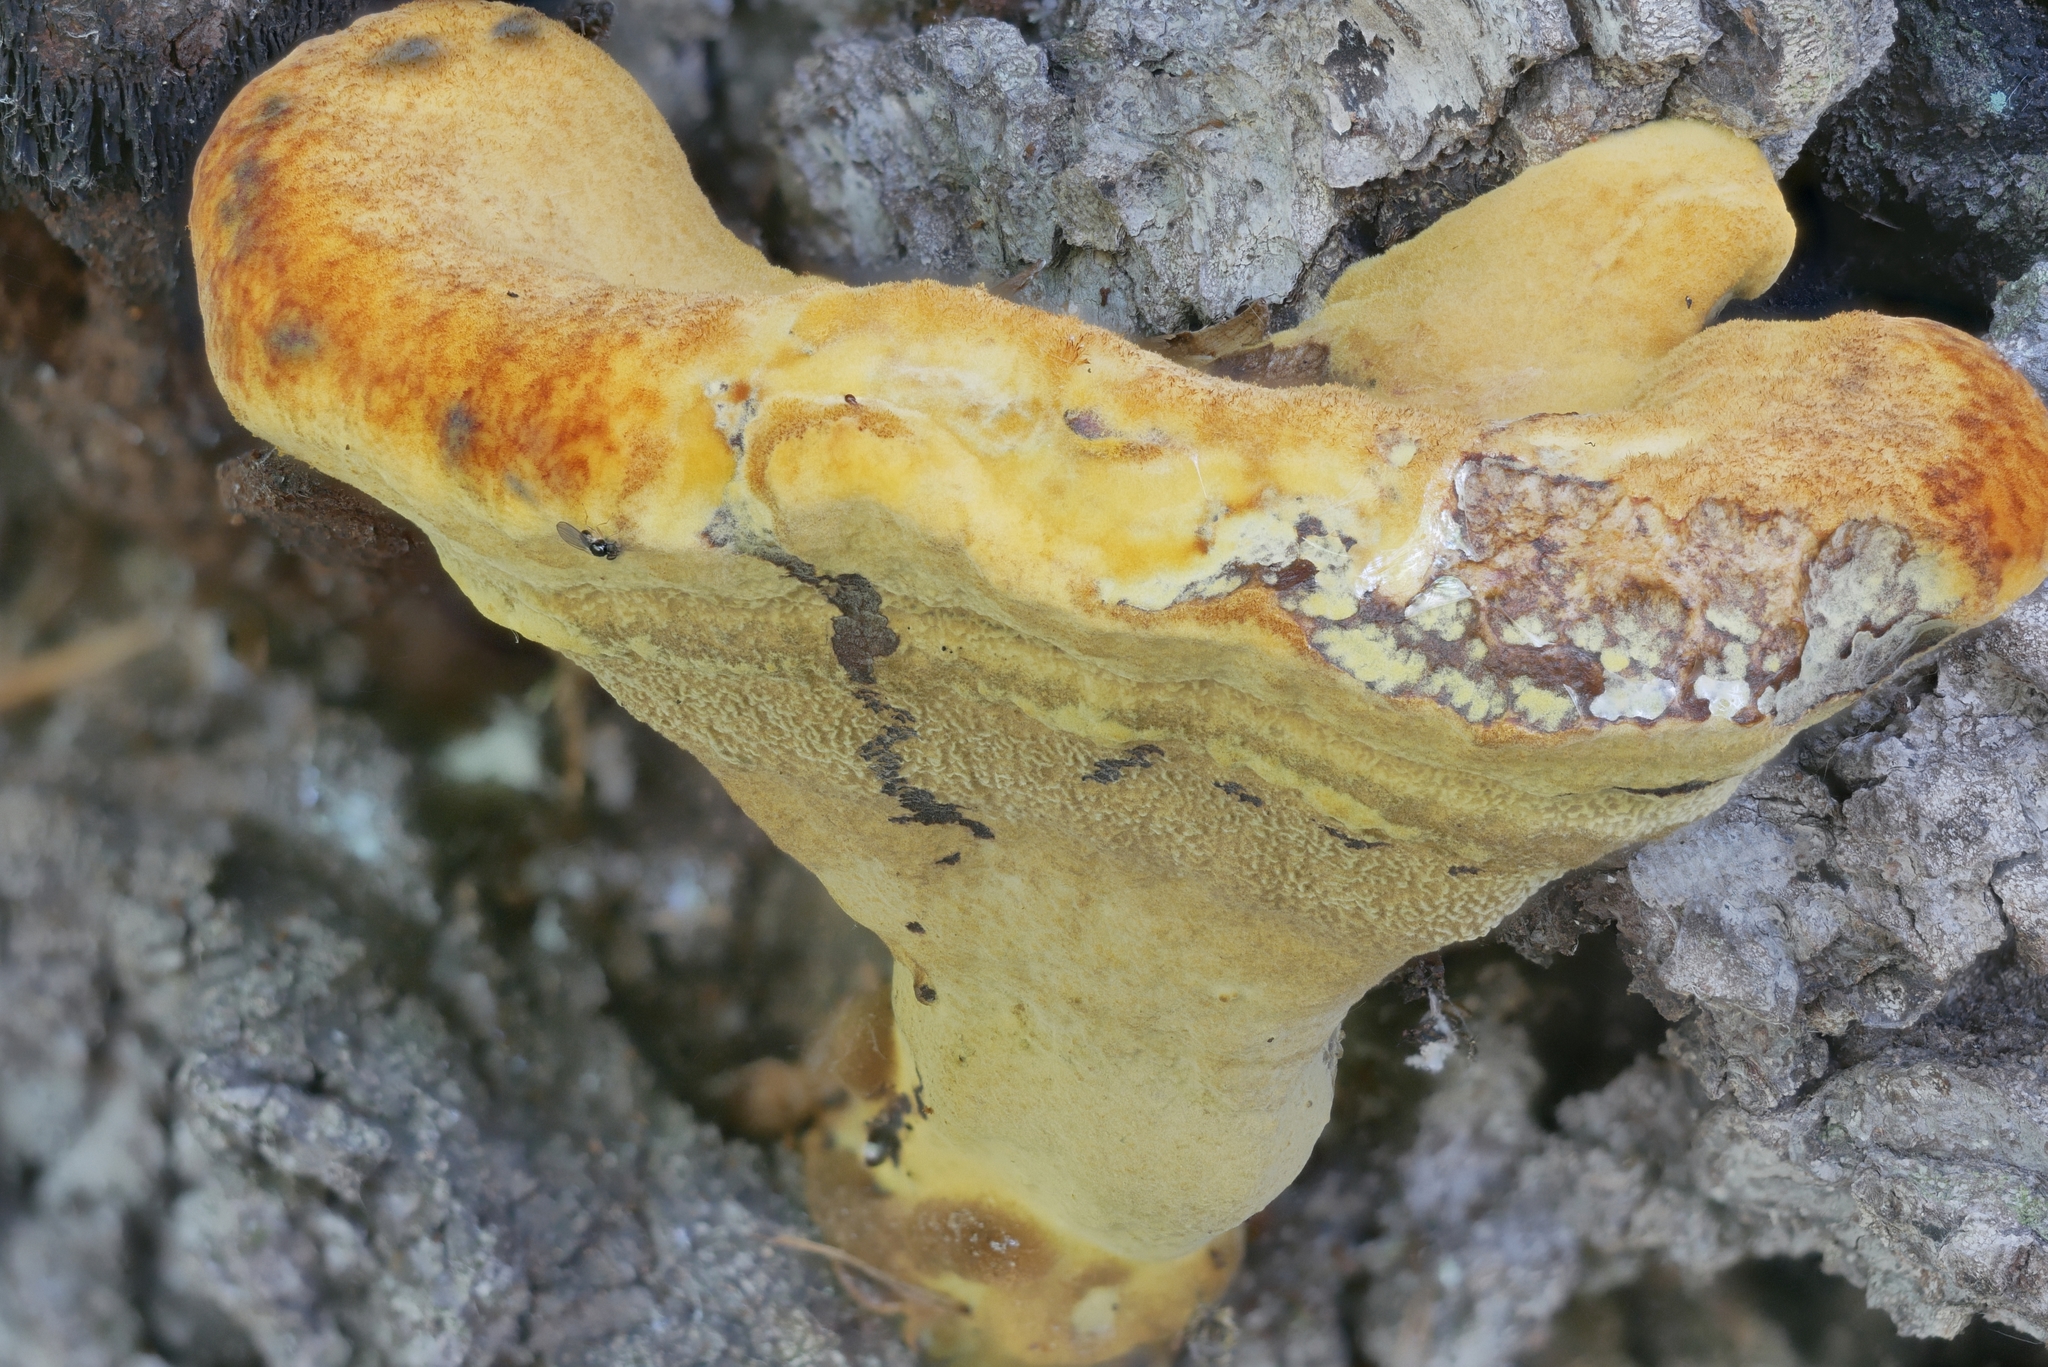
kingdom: Fungi
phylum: Basidiomycota
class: Agaricomycetes
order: Polyporales
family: Laetiporaceae
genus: Phaeolus
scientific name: Phaeolus schweinitzii
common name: Dyer's mazegill
